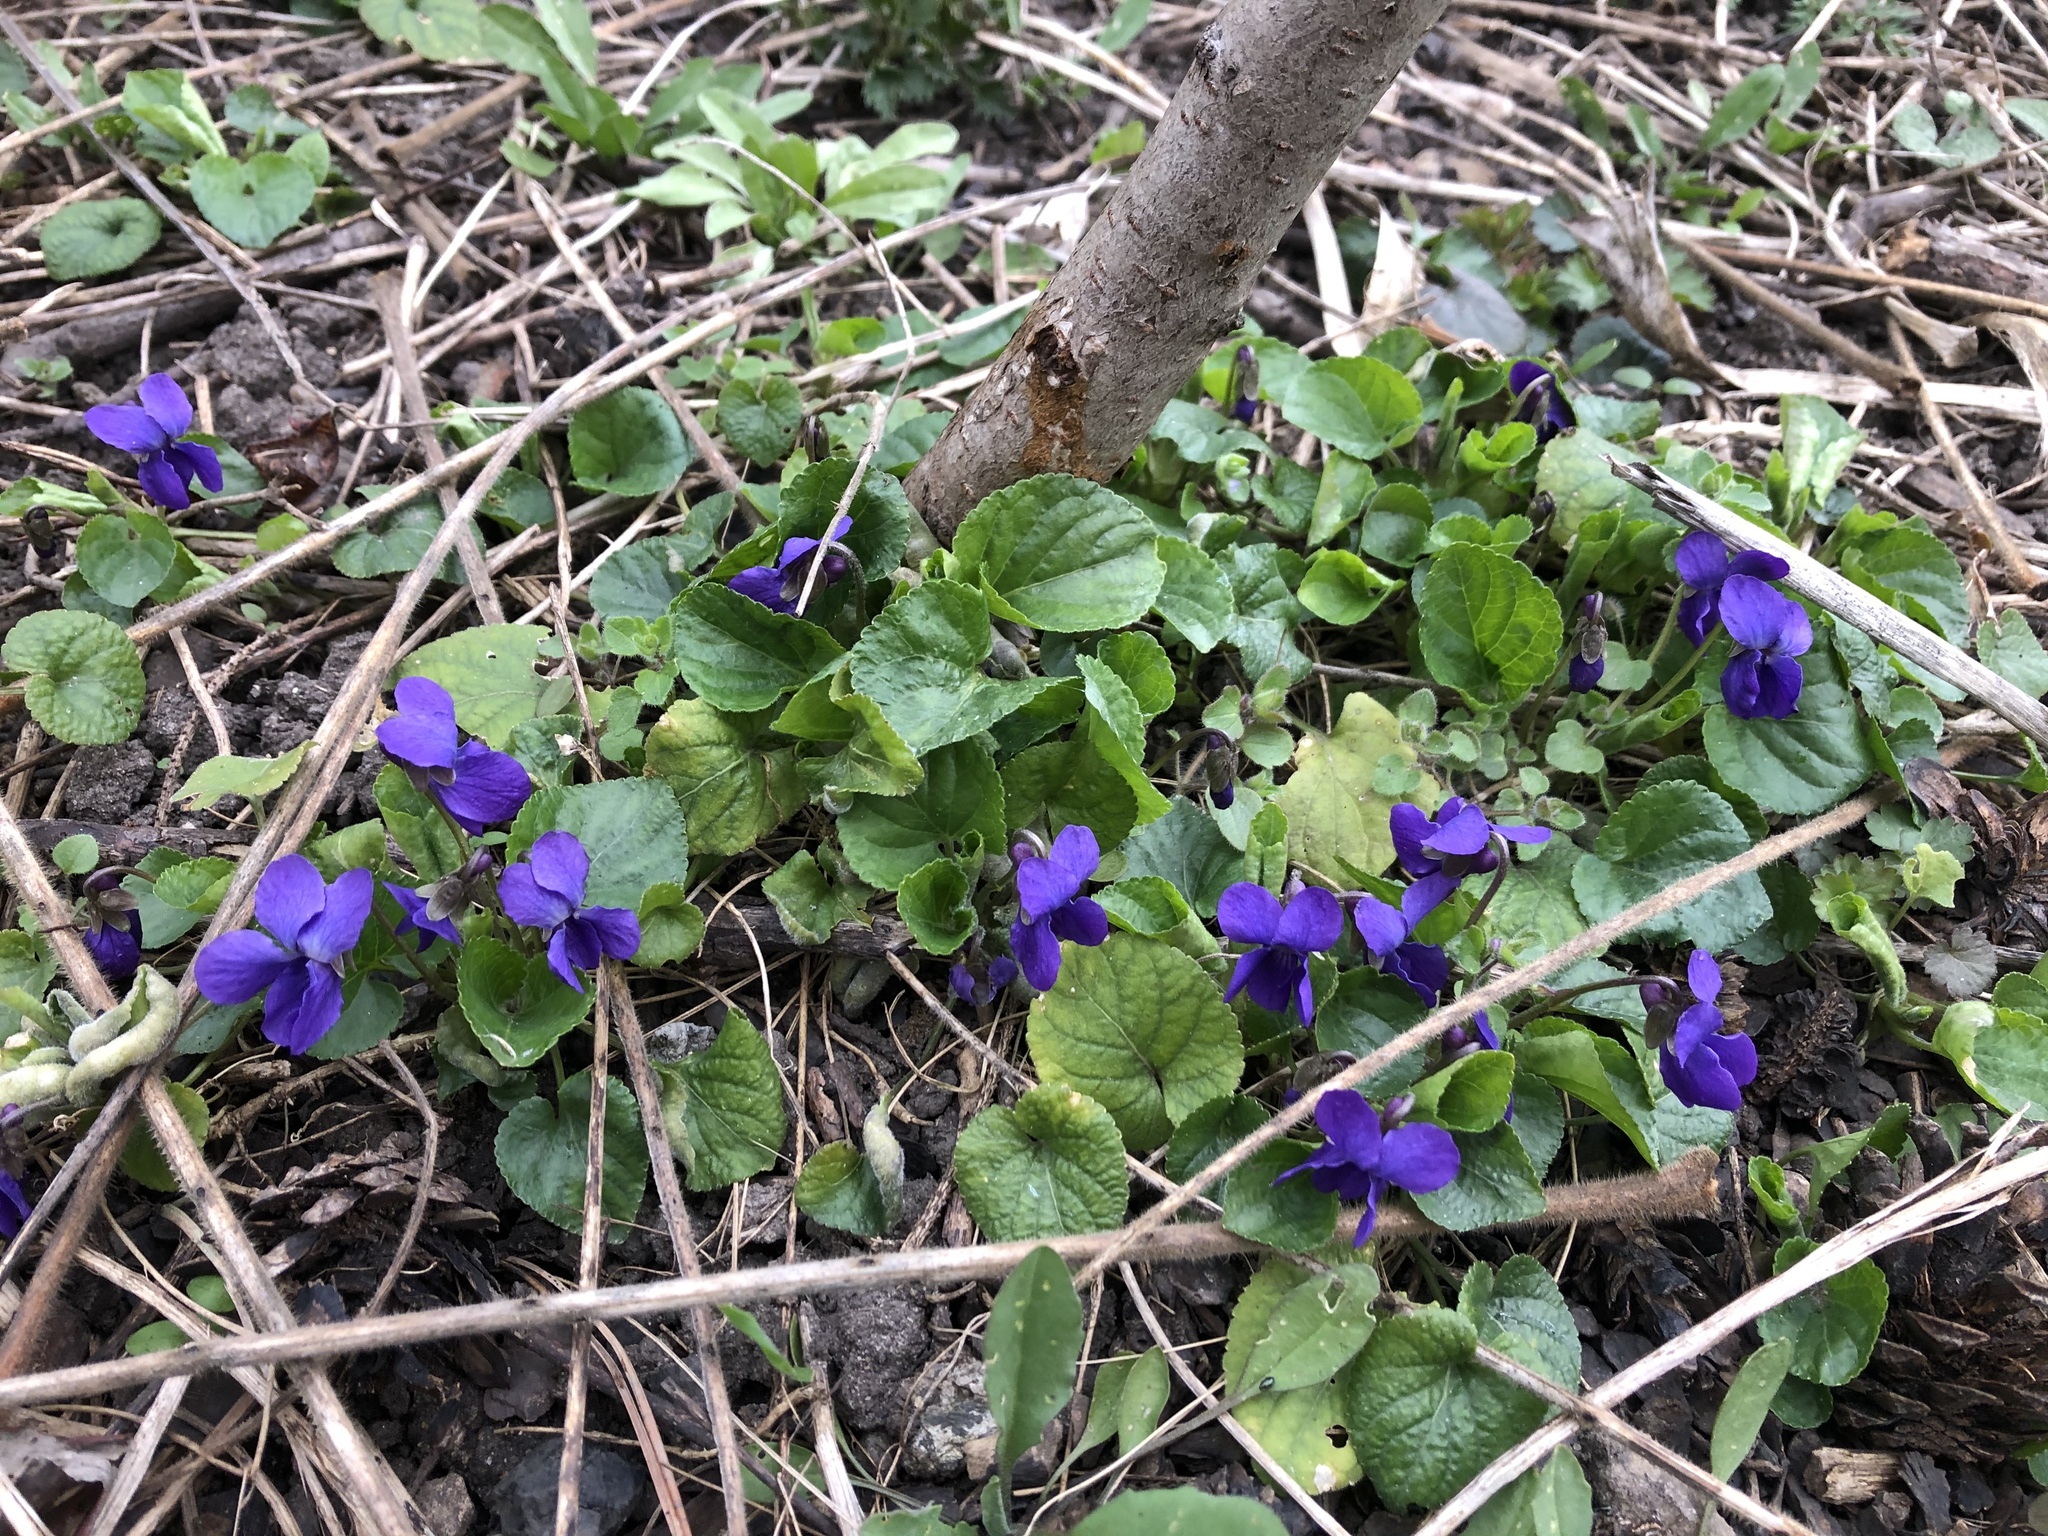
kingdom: Plantae
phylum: Tracheophyta
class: Magnoliopsida
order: Malpighiales
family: Violaceae
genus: Viola
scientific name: Viola odorata
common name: Sweet violet
